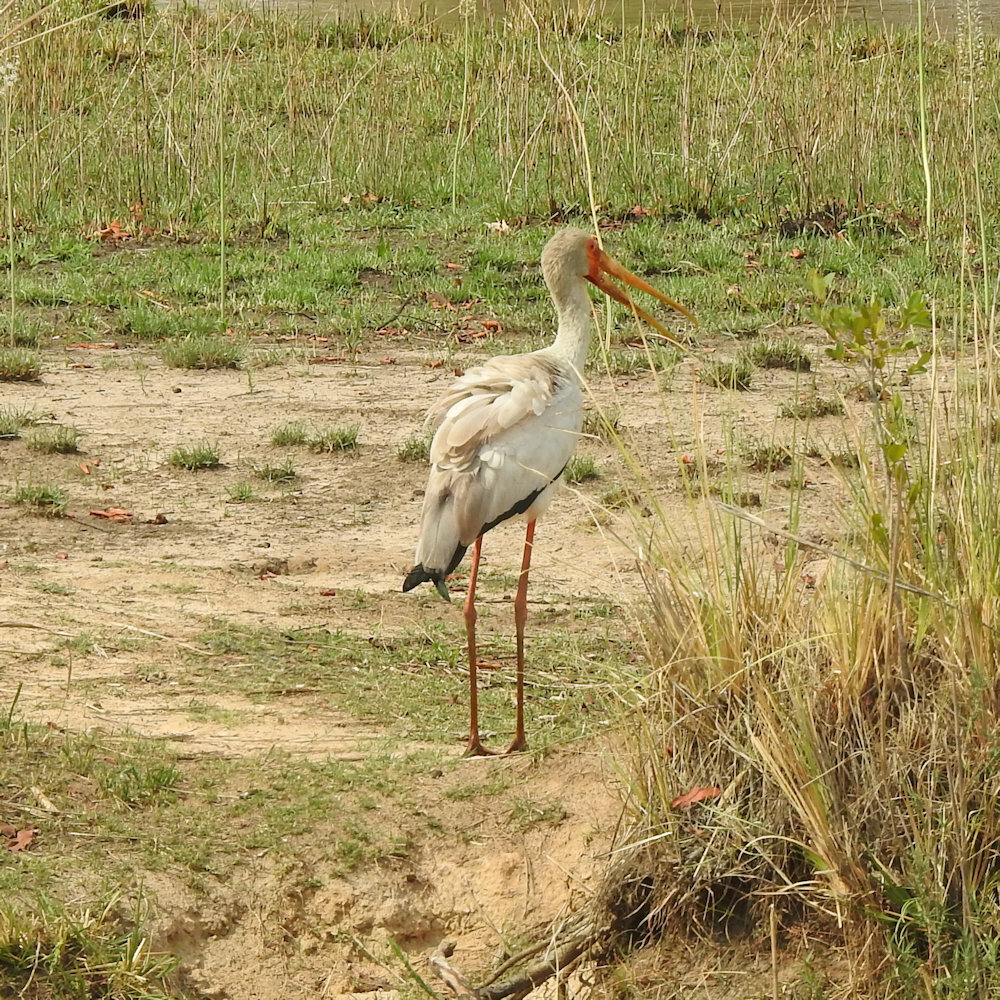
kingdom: Animalia
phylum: Chordata
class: Aves
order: Ciconiiformes
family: Ciconiidae
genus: Mycteria
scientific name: Mycteria ibis
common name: Yellow-billed stork
